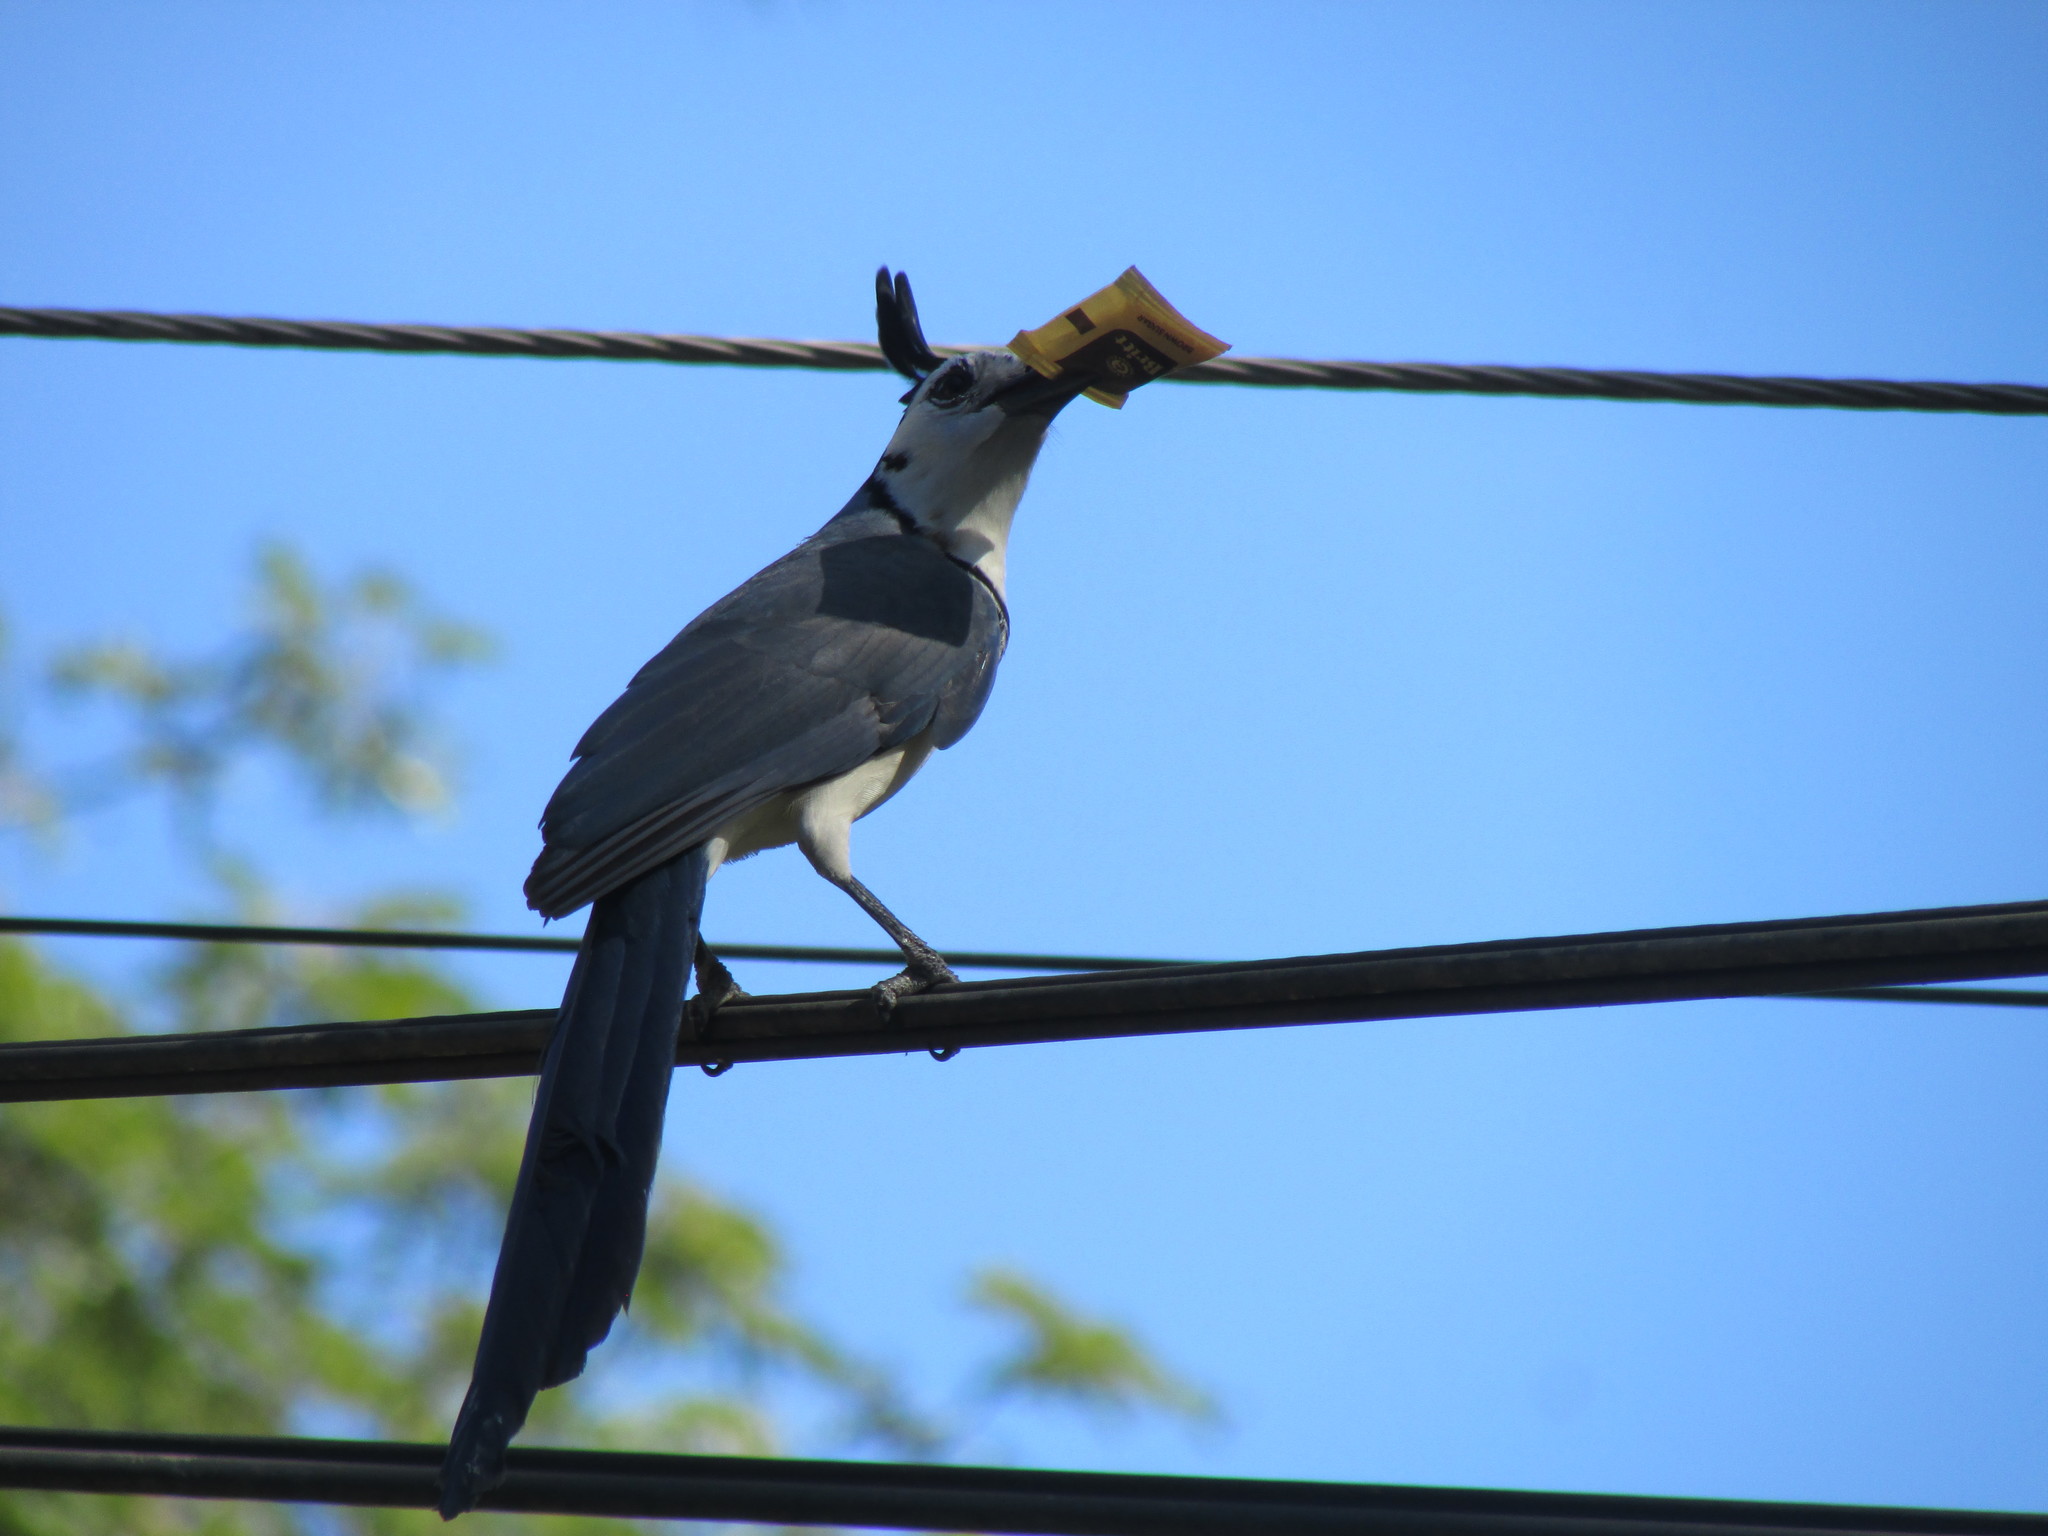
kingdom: Animalia
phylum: Chordata
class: Aves
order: Passeriformes
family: Corvidae
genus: Calocitta
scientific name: Calocitta formosa
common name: White-throated magpie-jay
